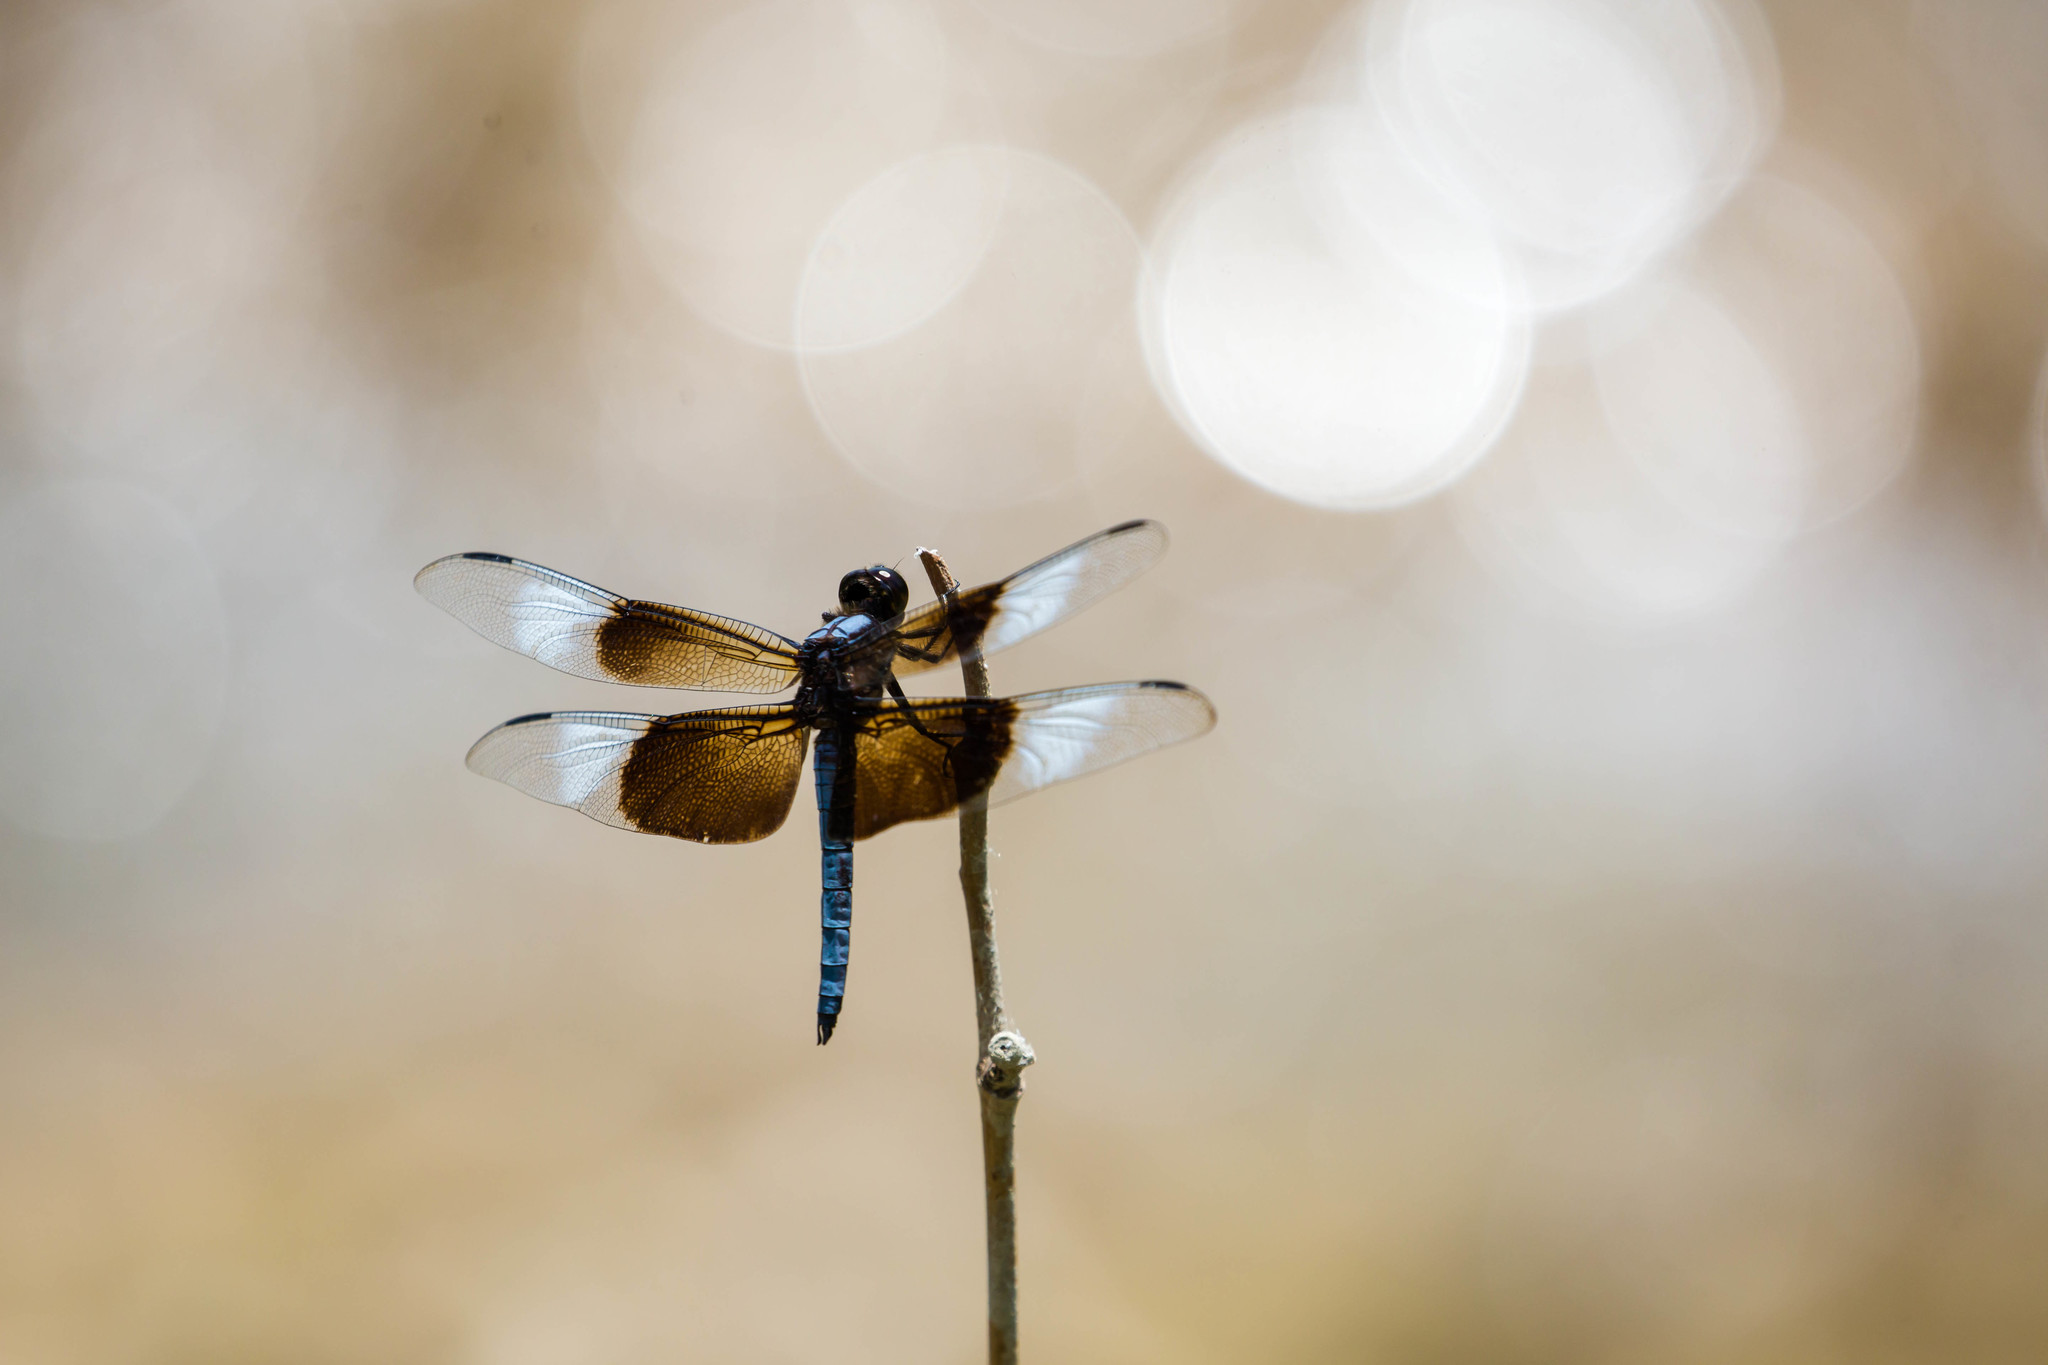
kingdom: Animalia
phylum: Arthropoda
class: Insecta
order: Odonata
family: Libellulidae
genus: Libellula
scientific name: Libellula luctuosa
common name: Widow skimmer
